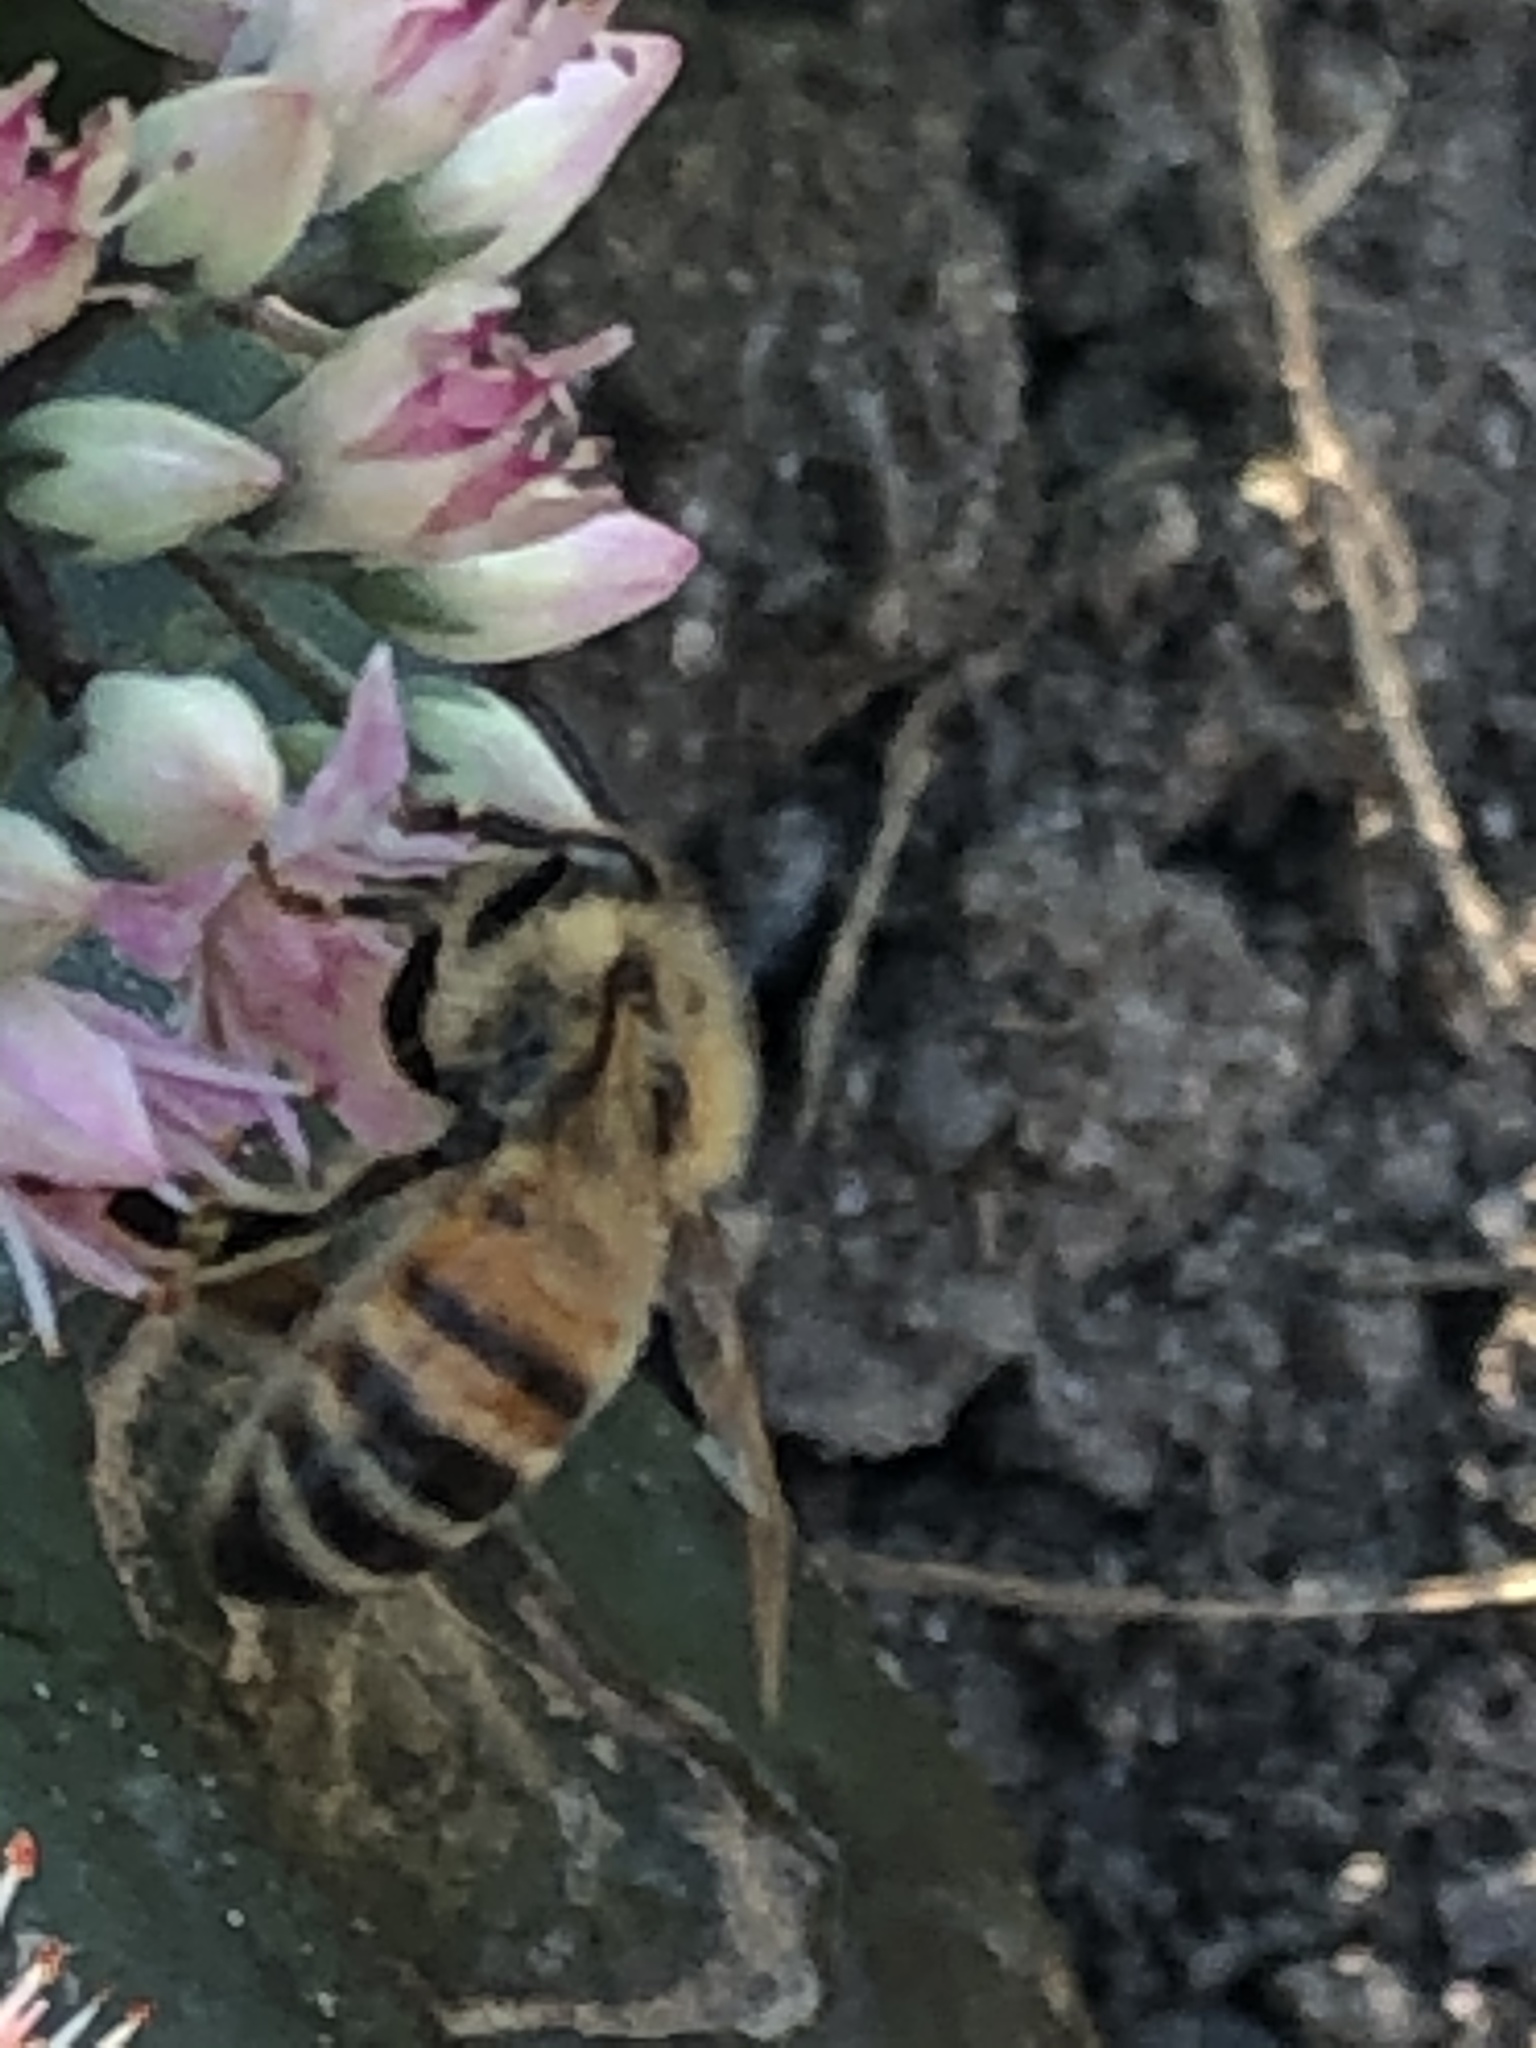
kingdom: Animalia
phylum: Arthropoda
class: Insecta
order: Hymenoptera
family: Apidae
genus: Apis
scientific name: Apis mellifera
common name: Honey bee
